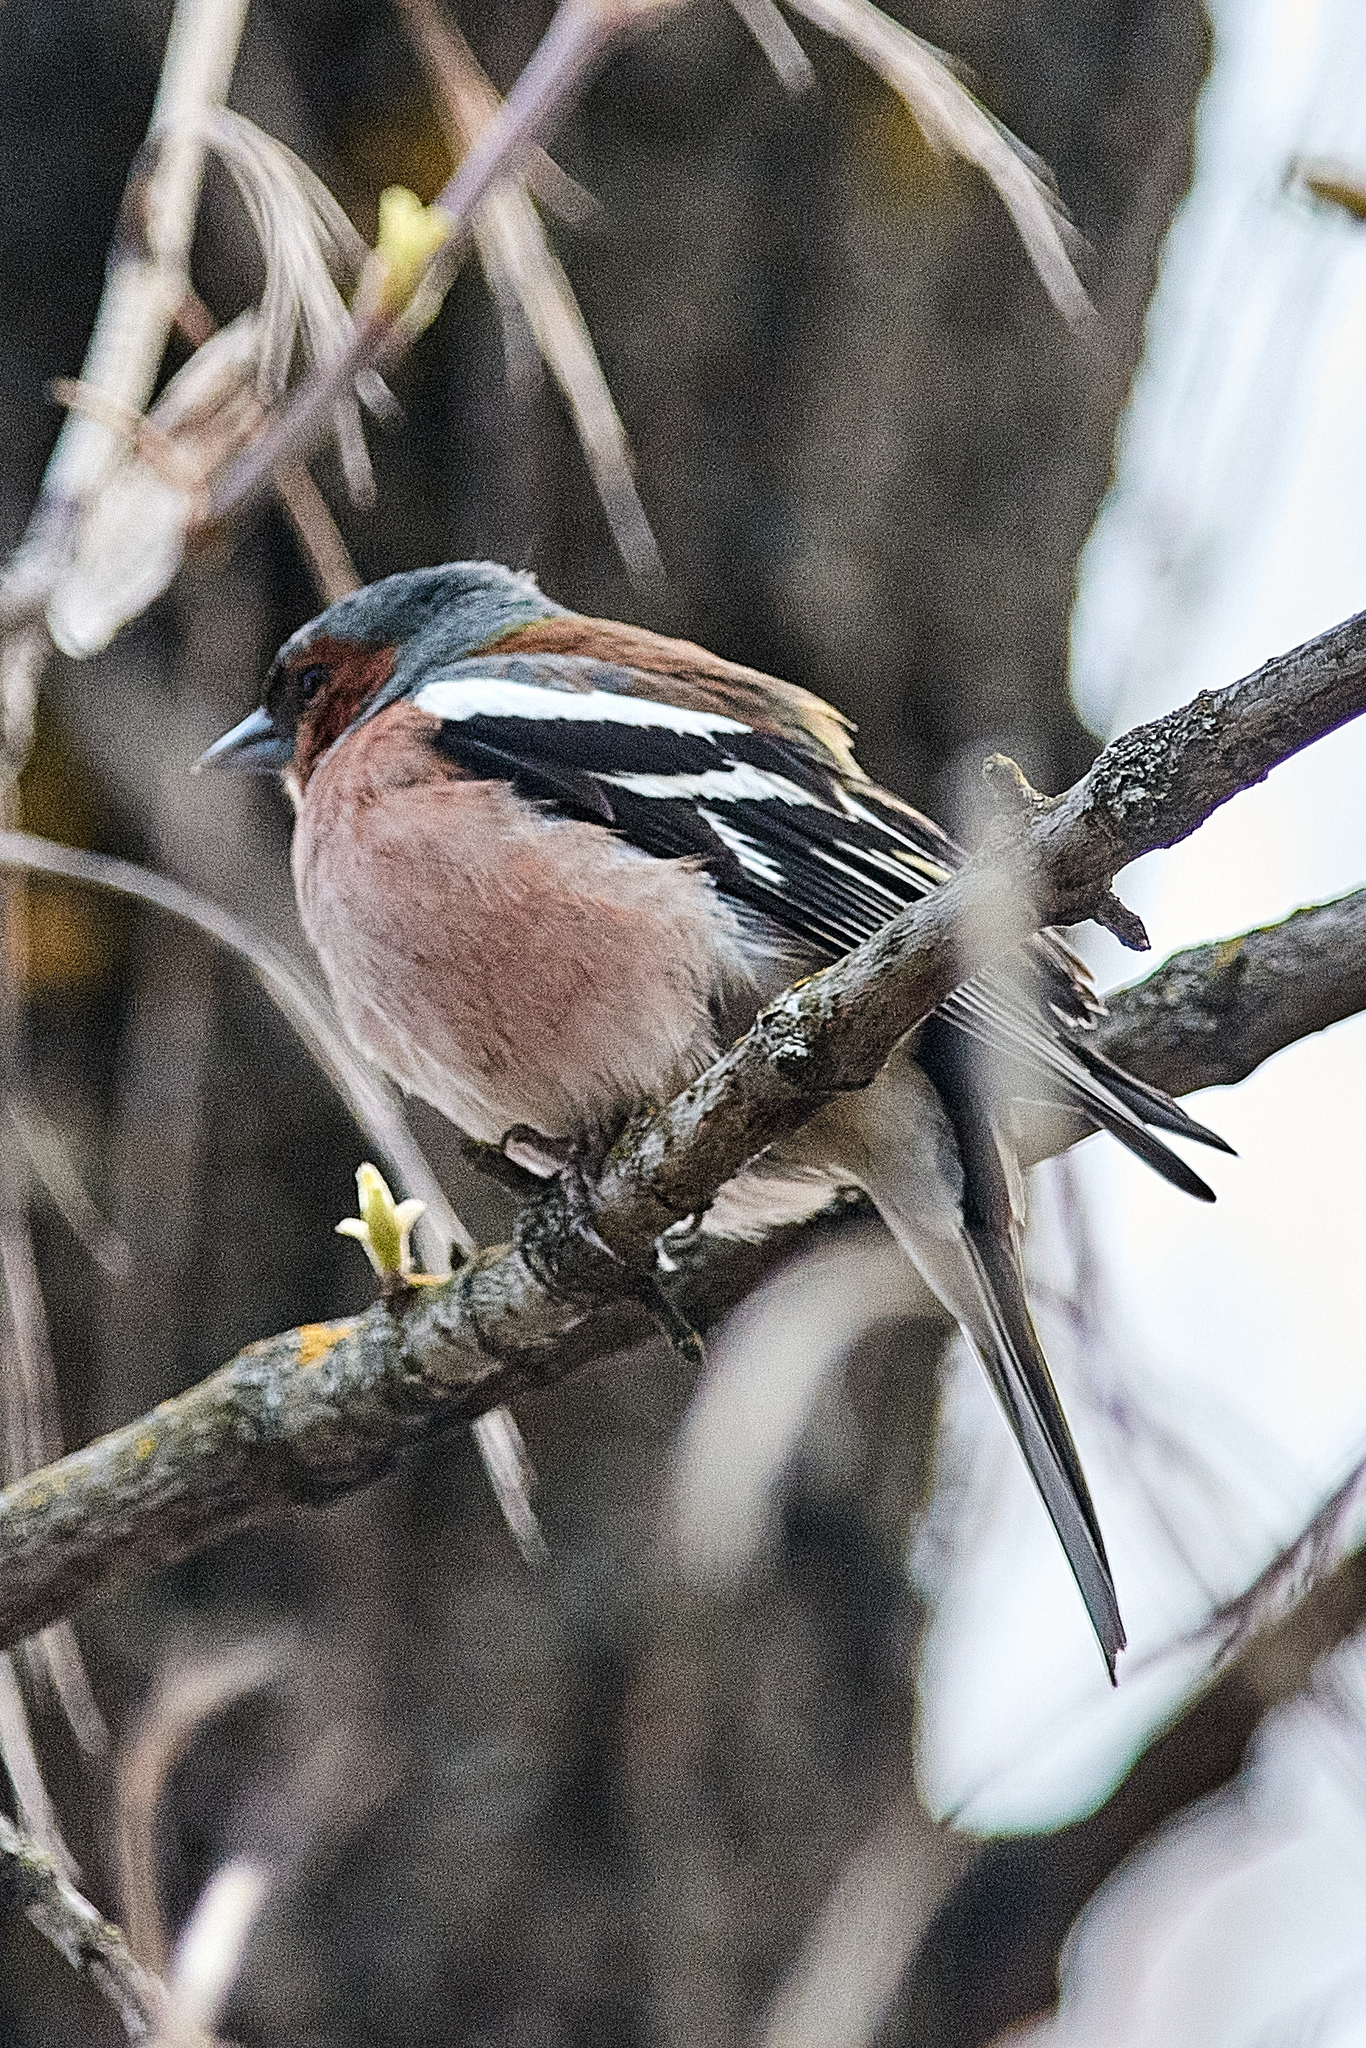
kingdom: Animalia
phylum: Chordata
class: Aves
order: Passeriformes
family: Fringillidae
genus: Fringilla
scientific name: Fringilla coelebs
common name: Common chaffinch
